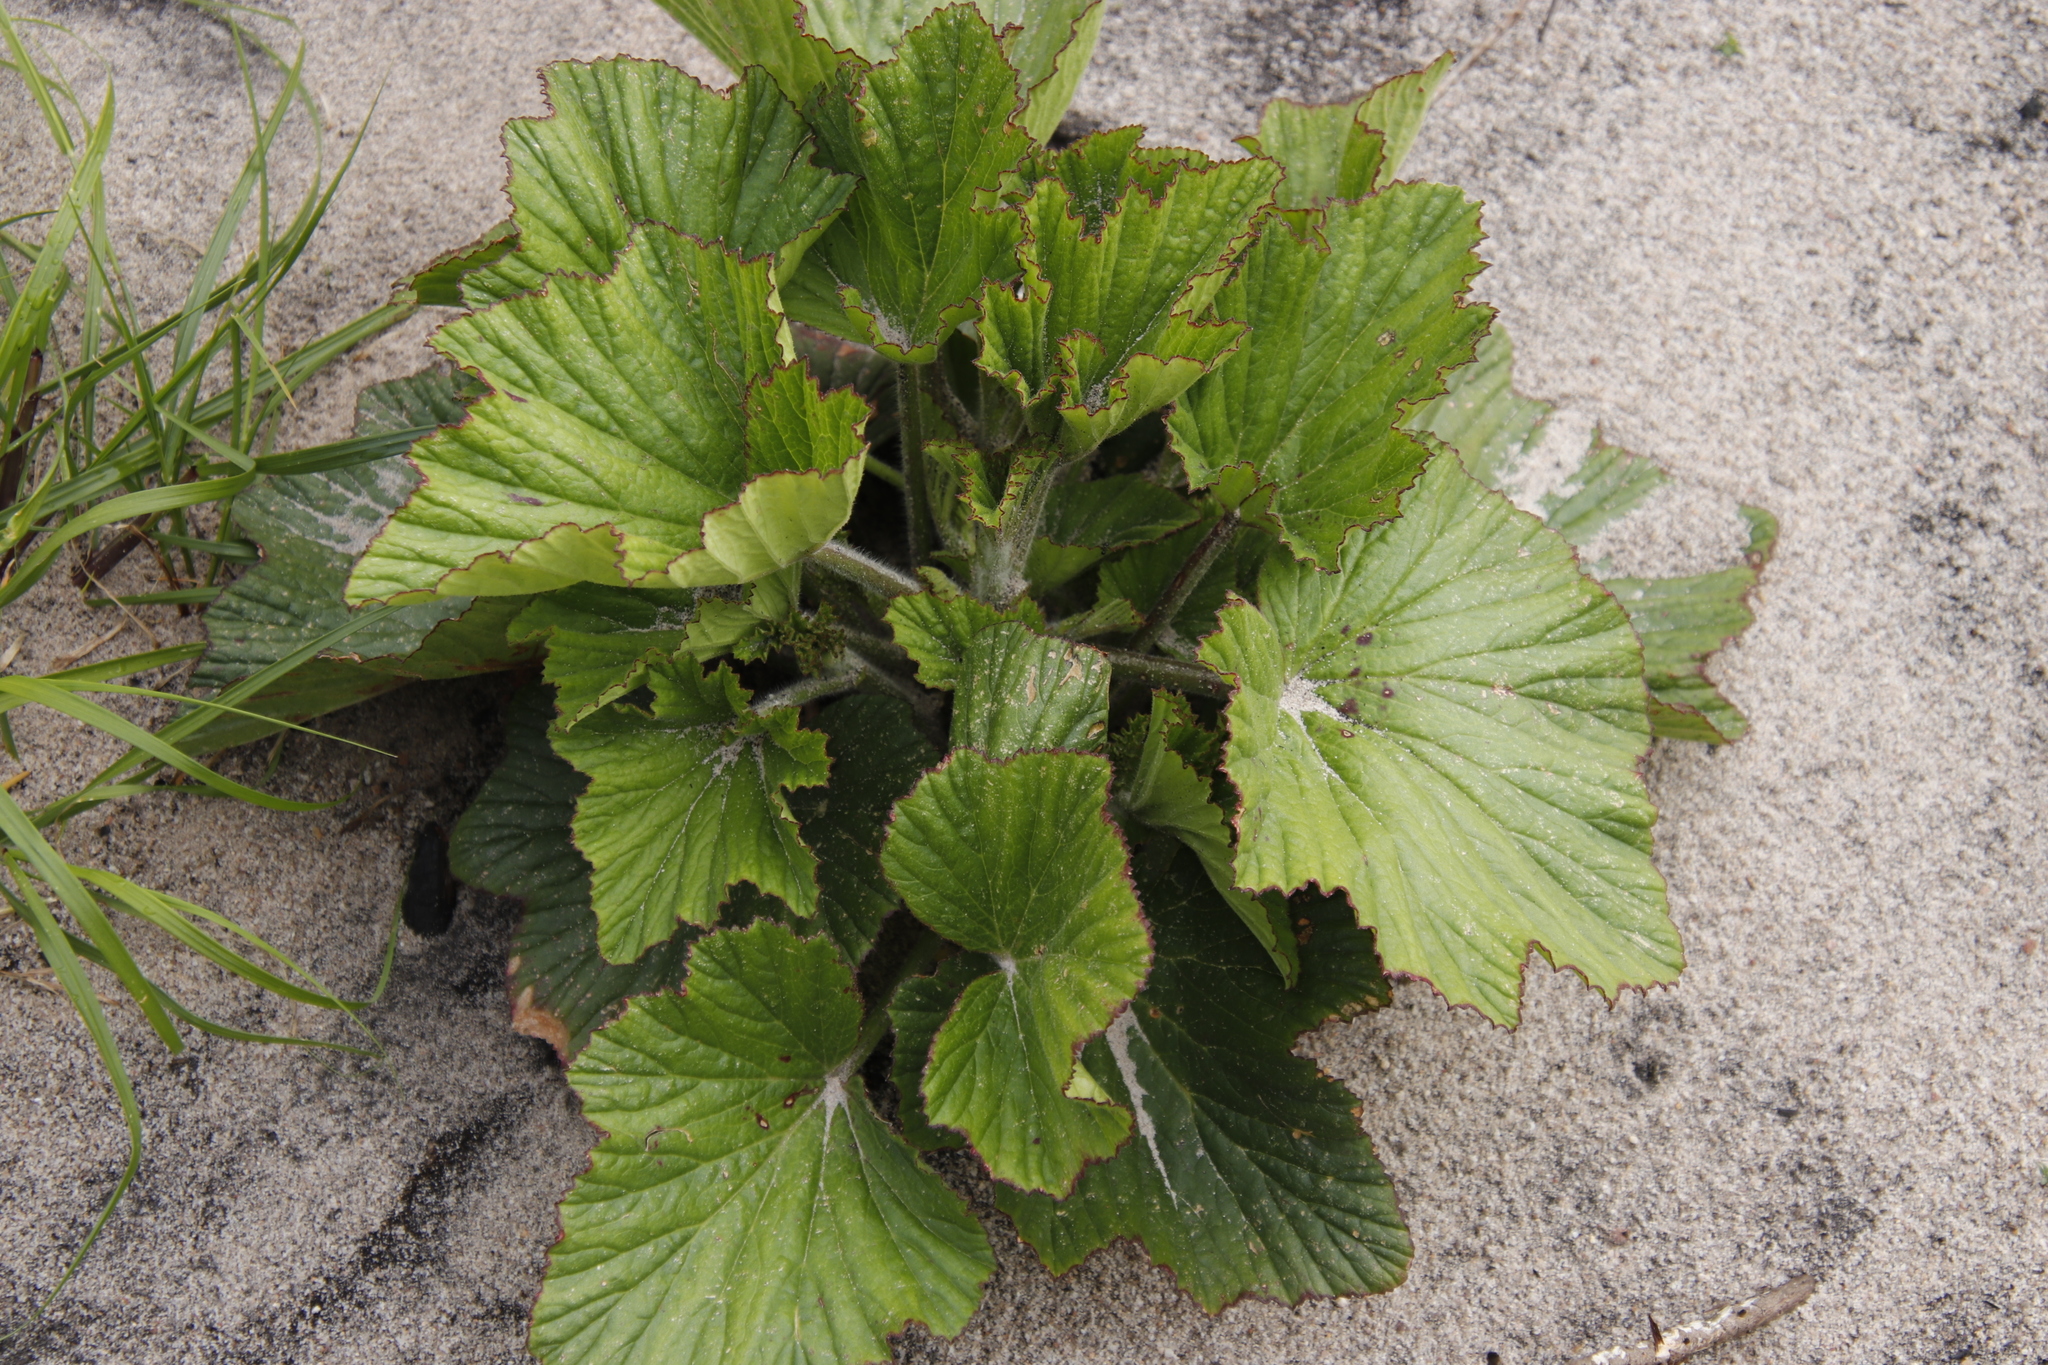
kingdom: Plantae
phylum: Tracheophyta
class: Magnoliopsida
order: Geraniales
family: Geraniaceae
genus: Pelargonium
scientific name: Pelargonium cucullatum
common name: Tree pelargonium
